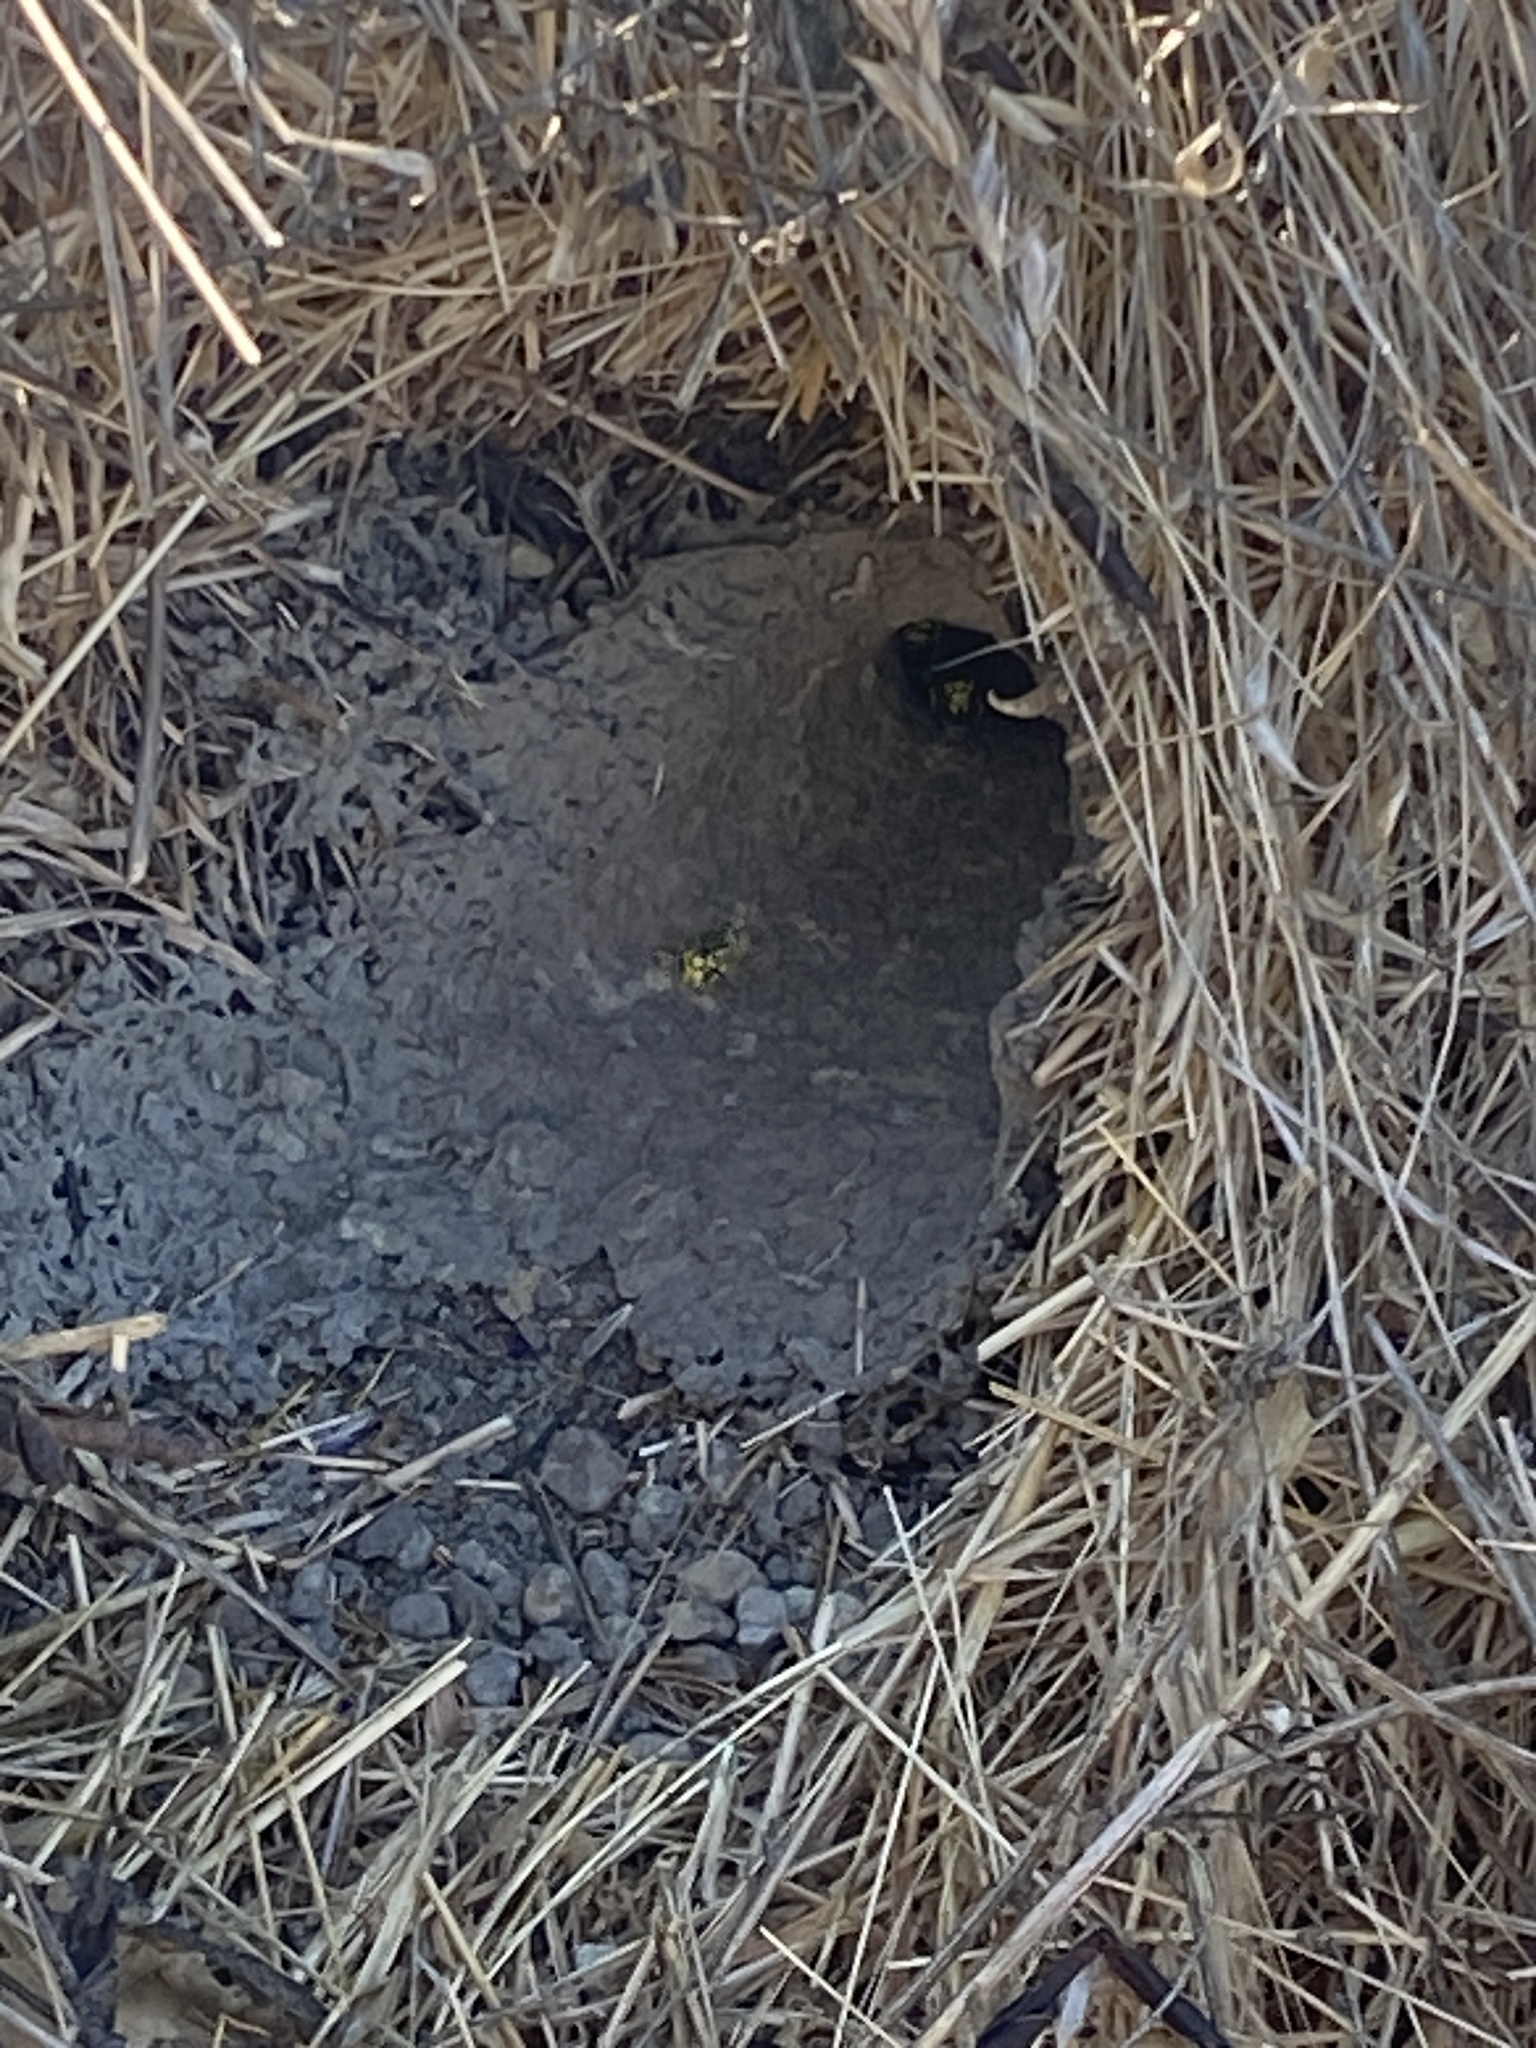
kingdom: Animalia
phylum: Arthropoda
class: Insecta
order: Hymenoptera
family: Vespidae
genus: Vespula
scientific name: Vespula
